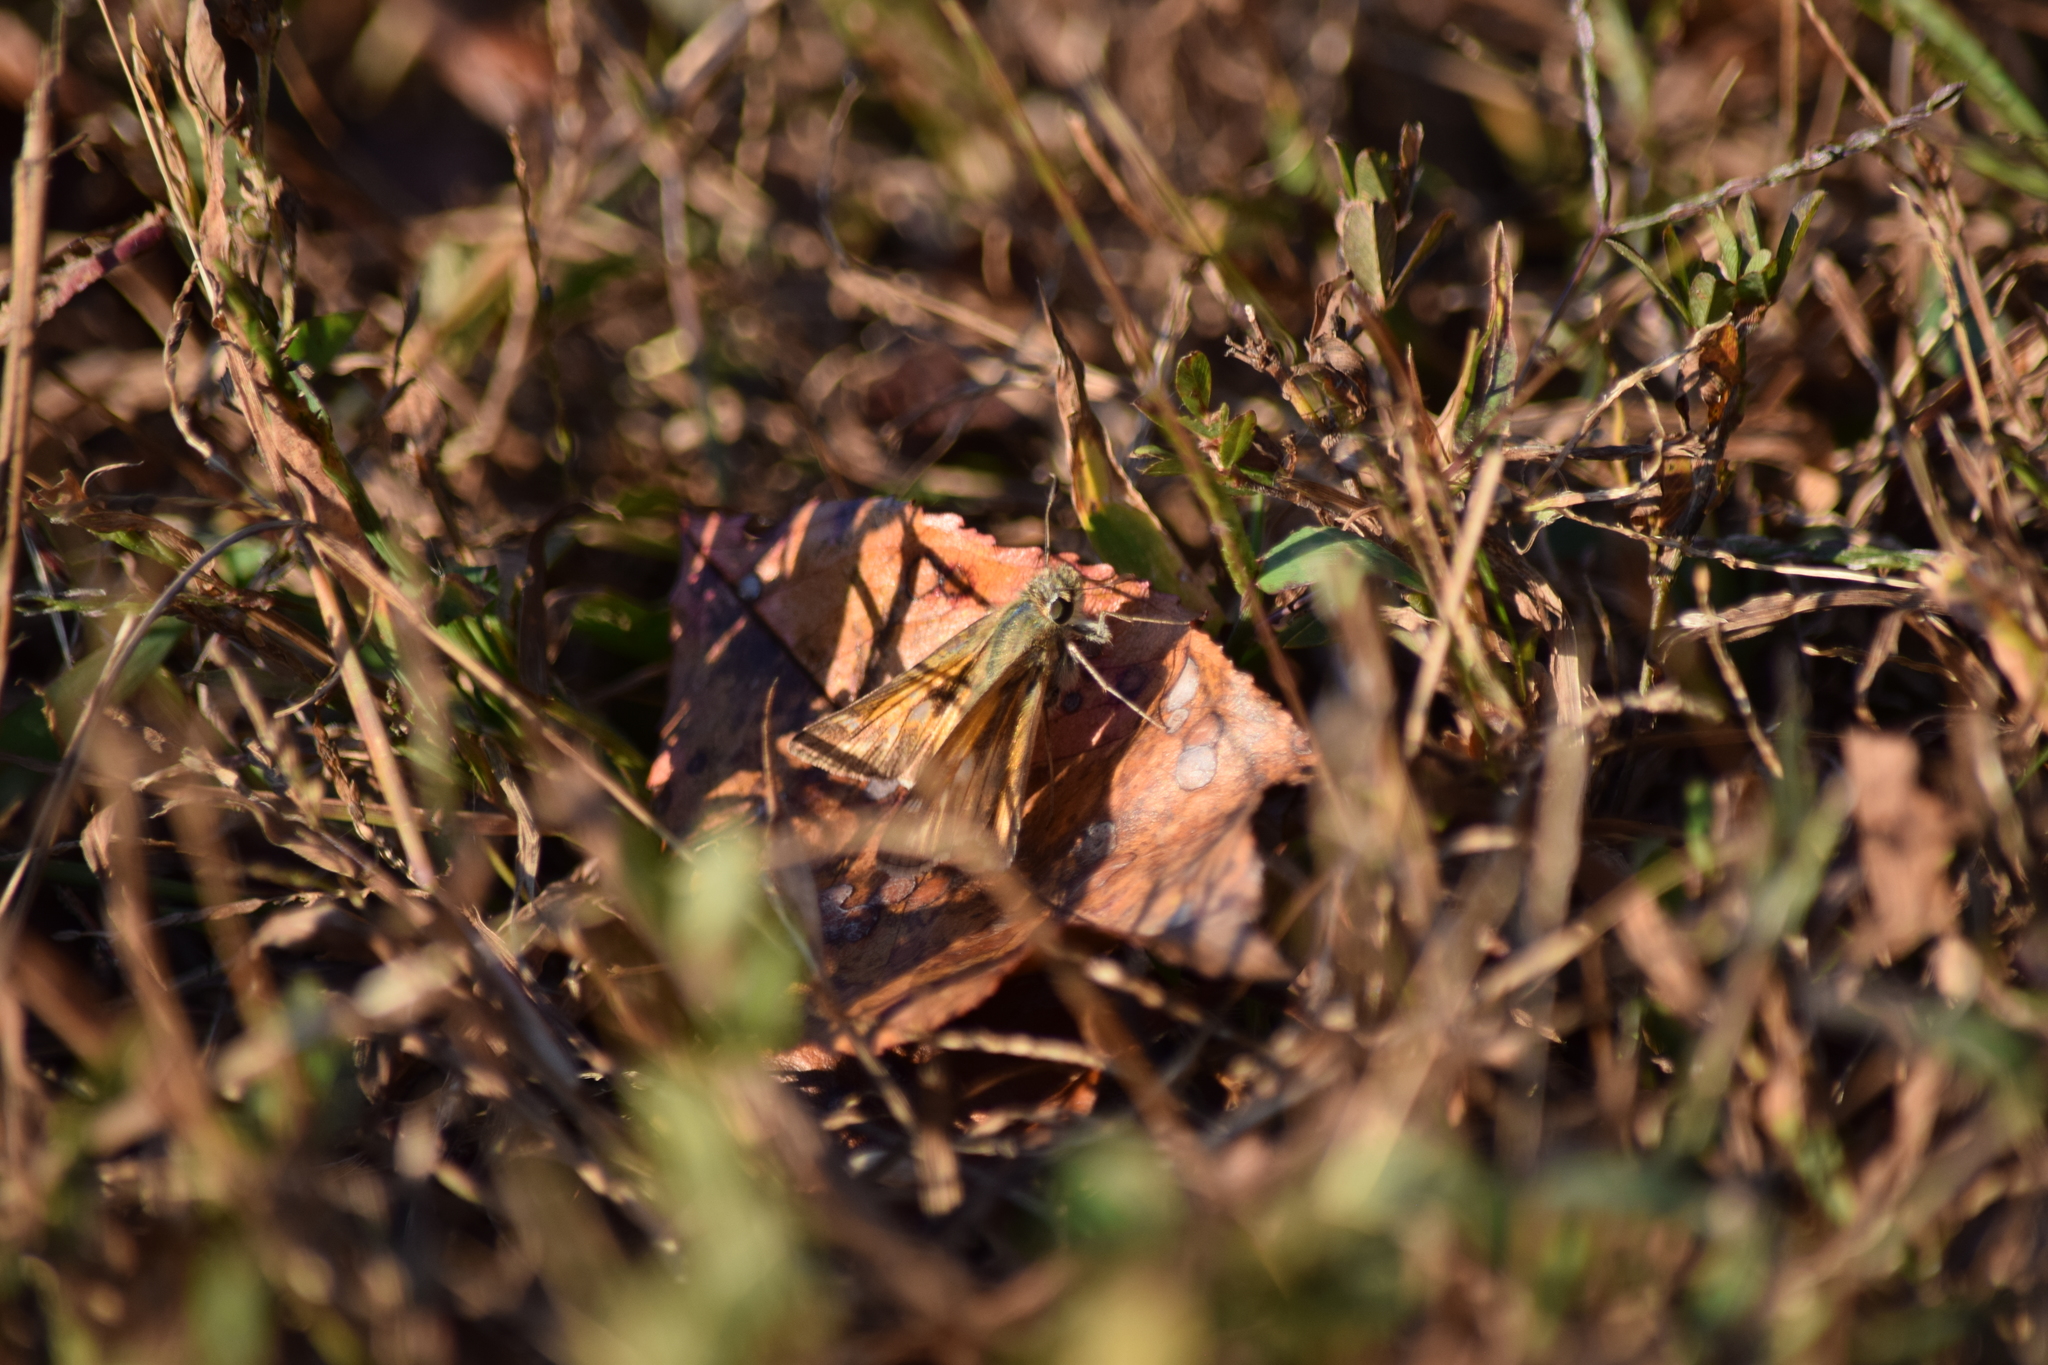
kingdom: Animalia
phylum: Arthropoda
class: Insecta
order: Lepidoptera
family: Hesperiidae
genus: Atalopedes
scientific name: Atalopedes
